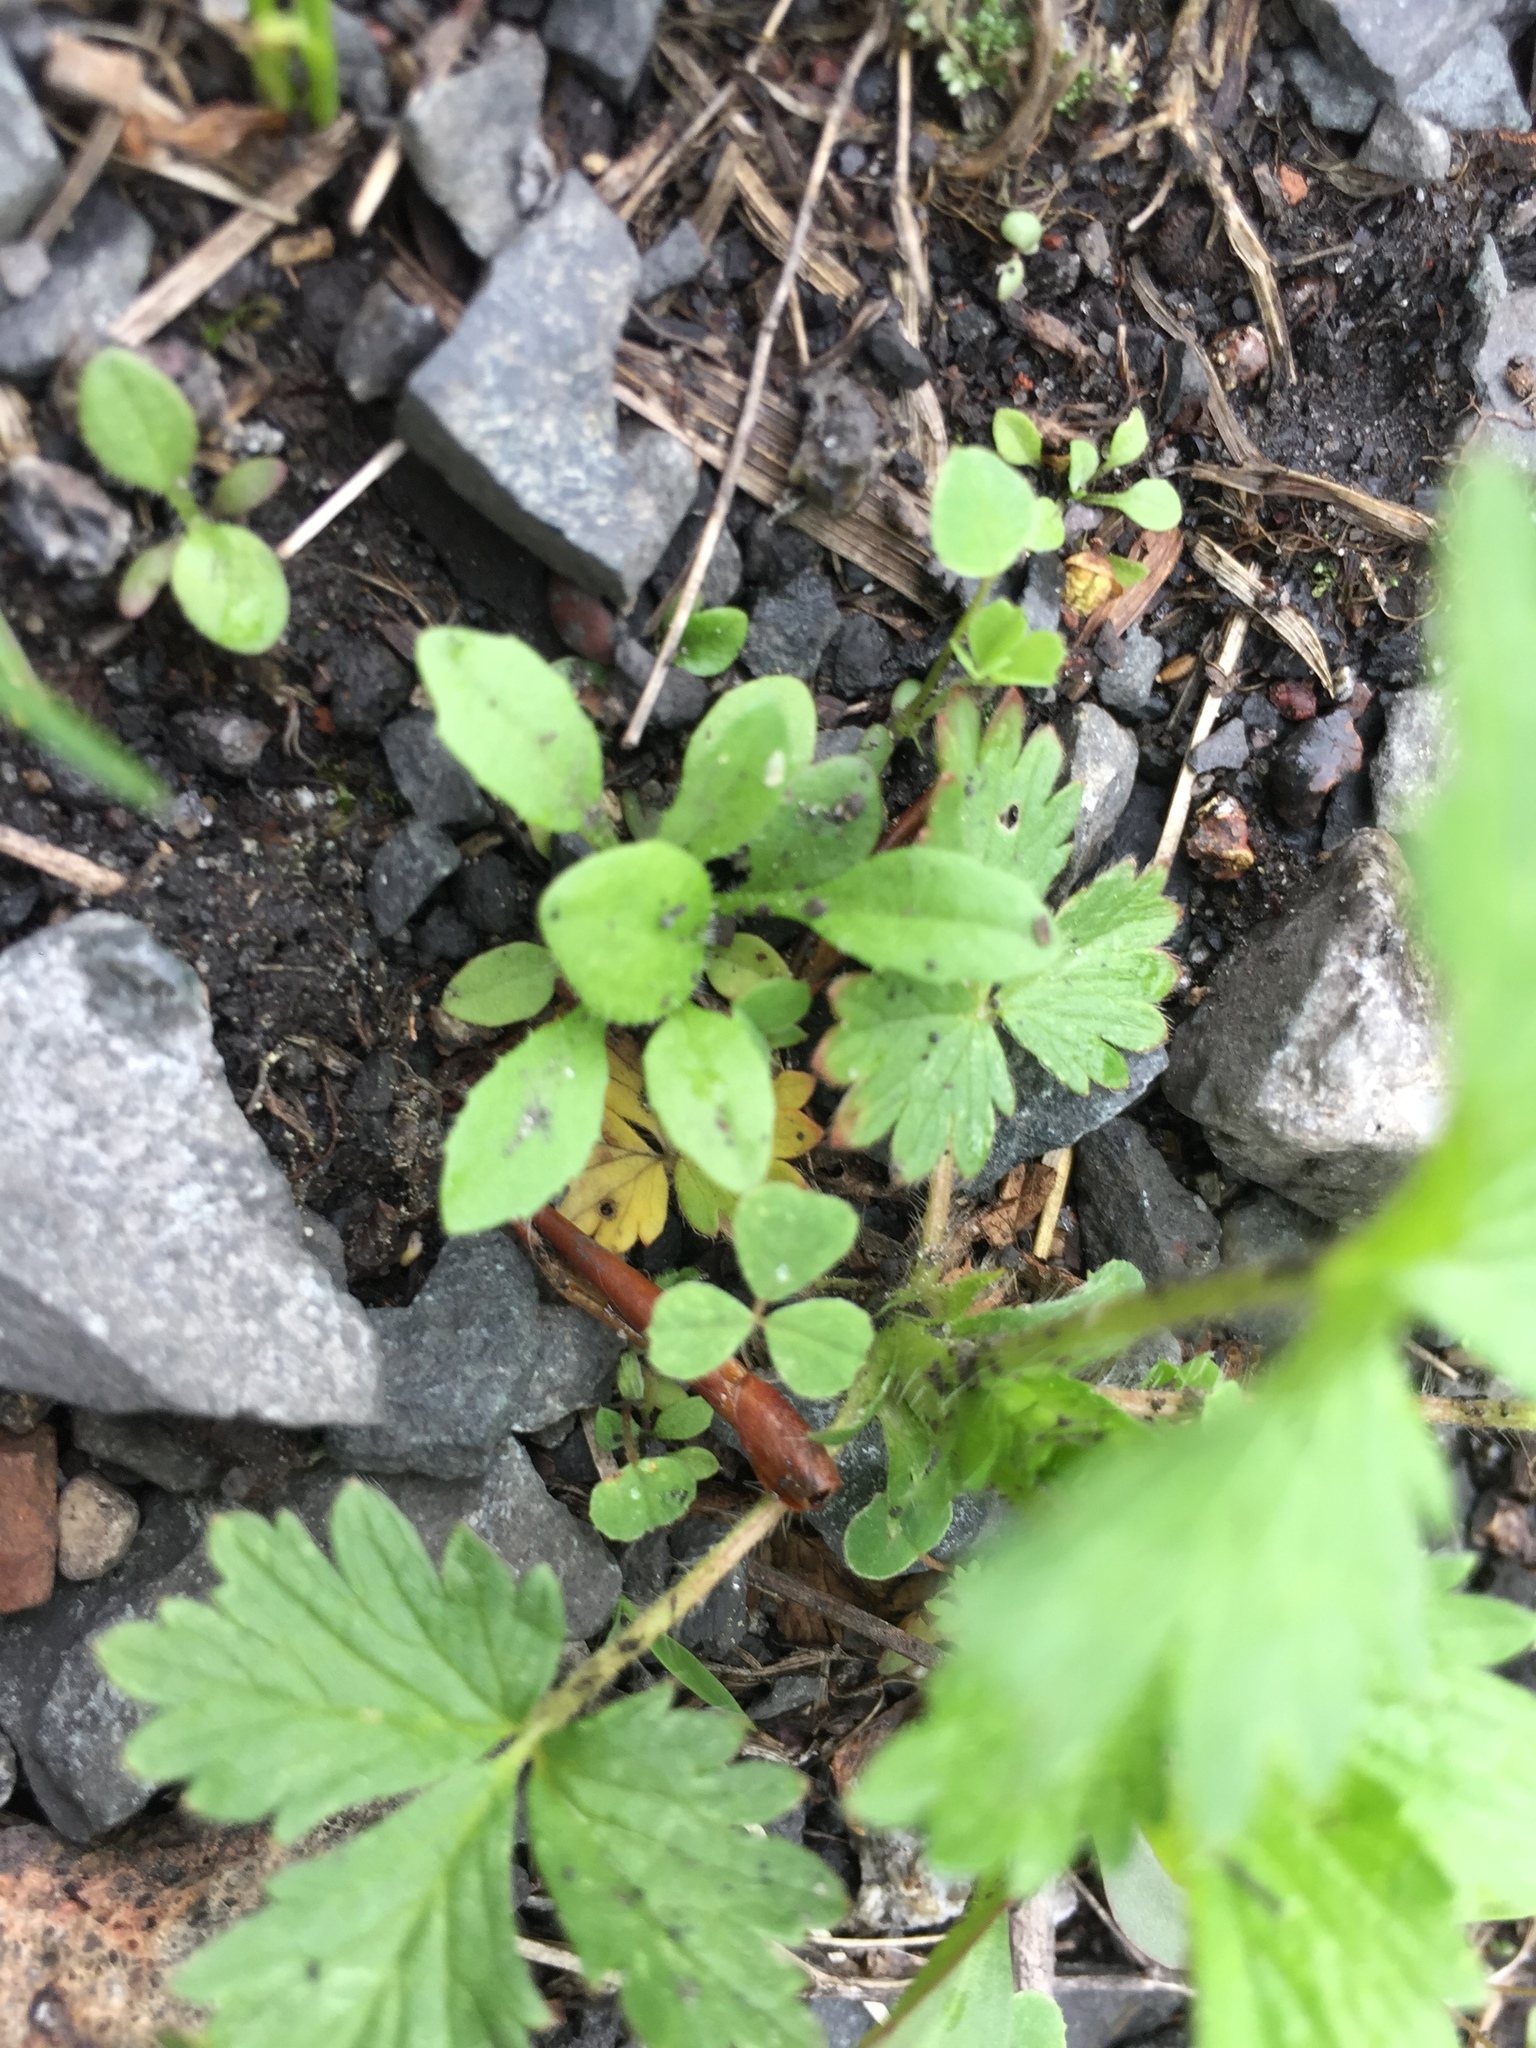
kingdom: Plantae
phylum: Tracheophyta
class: Magnoliopsida
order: Rosales
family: Rosaceae
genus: Potentilla
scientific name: Potentilla norvegica
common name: Ternate-leaved cinquefoil
